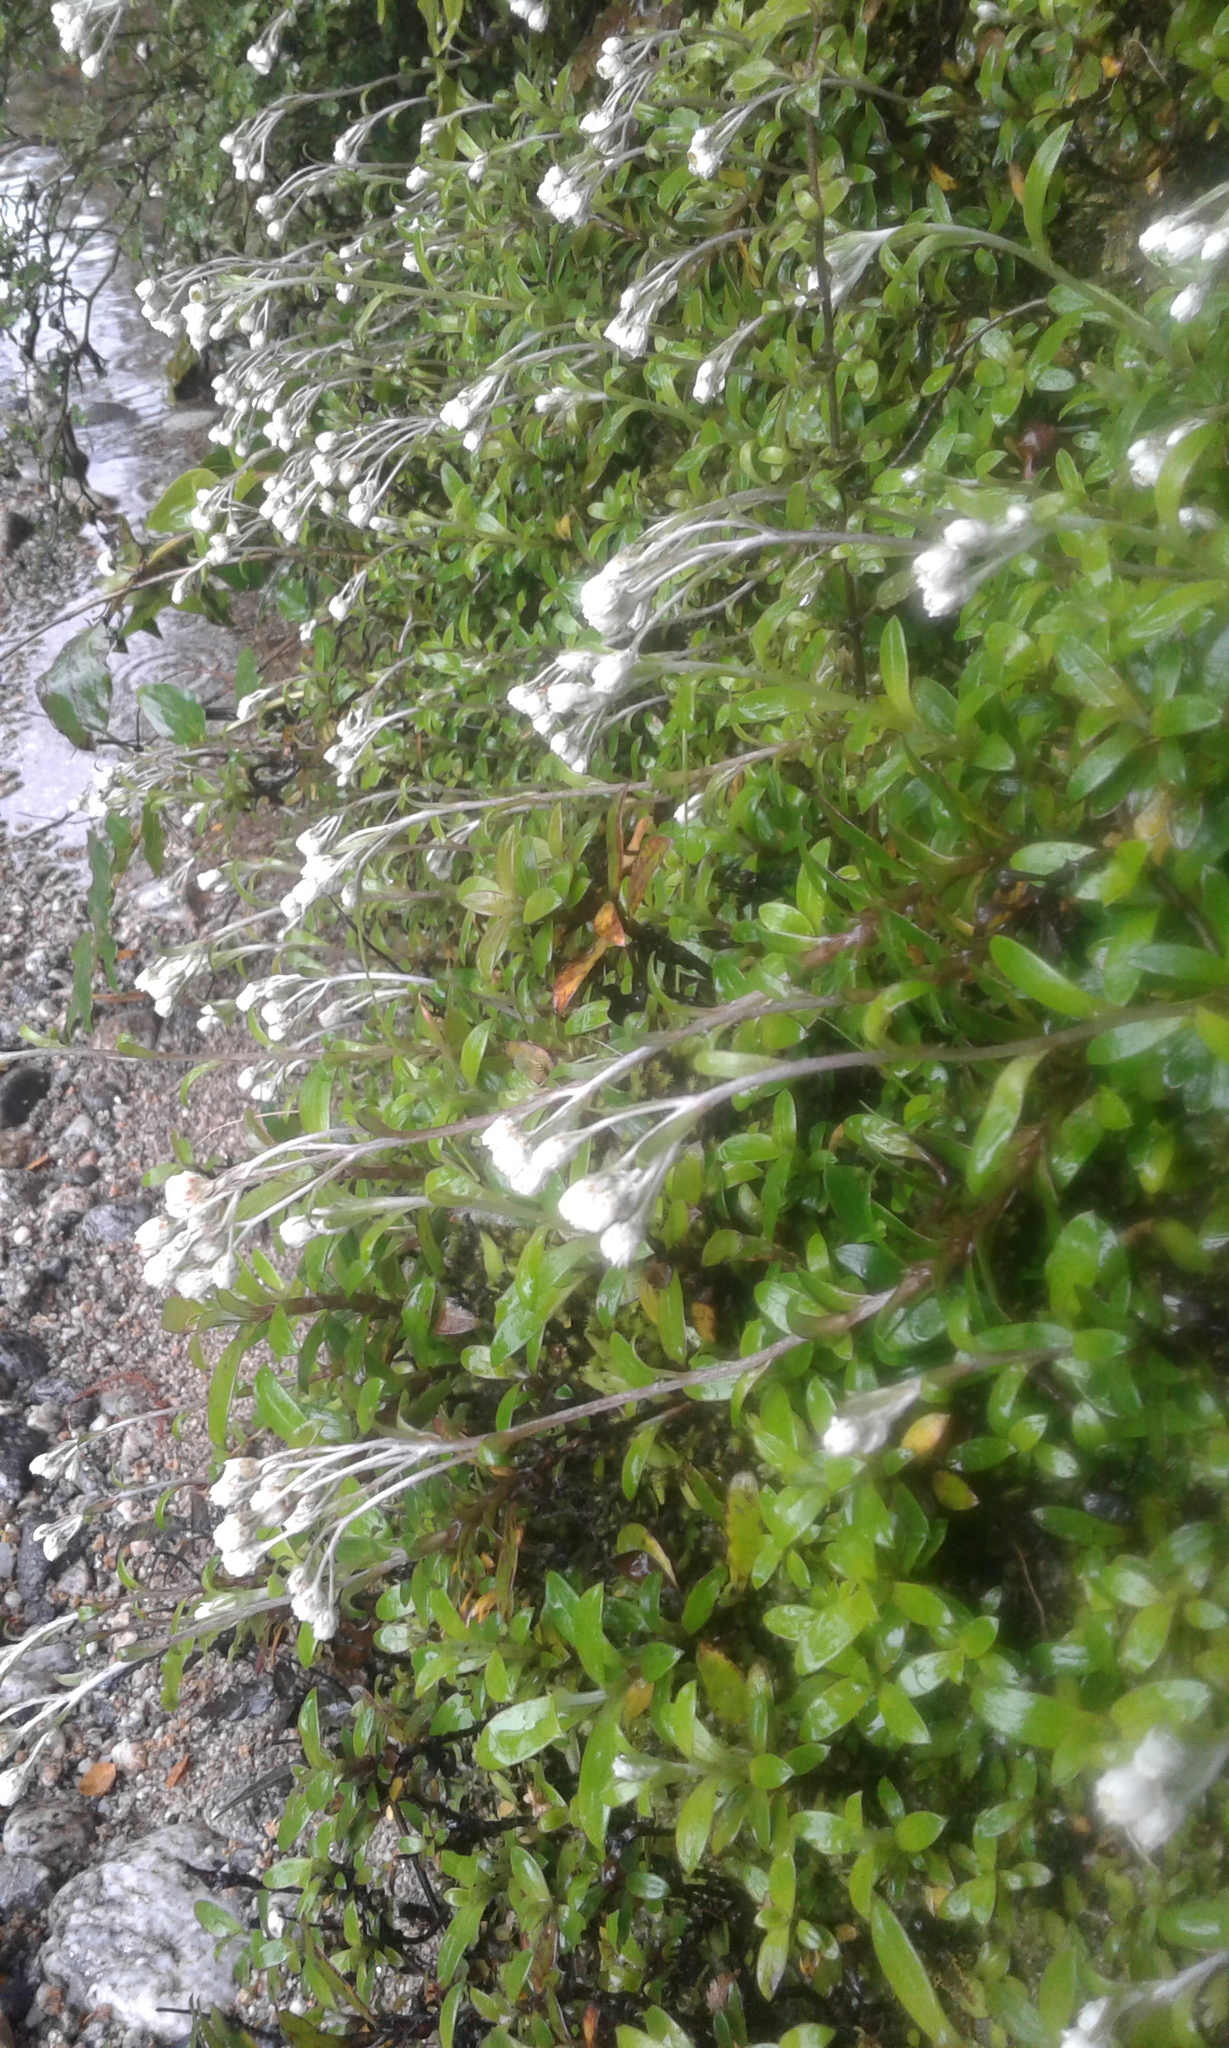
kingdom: Plantae
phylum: Tracheophyta
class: Magnoliopsida
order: Asterales
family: Asteraceae
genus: Anaphalioides
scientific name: Anaphalioides trinervis
